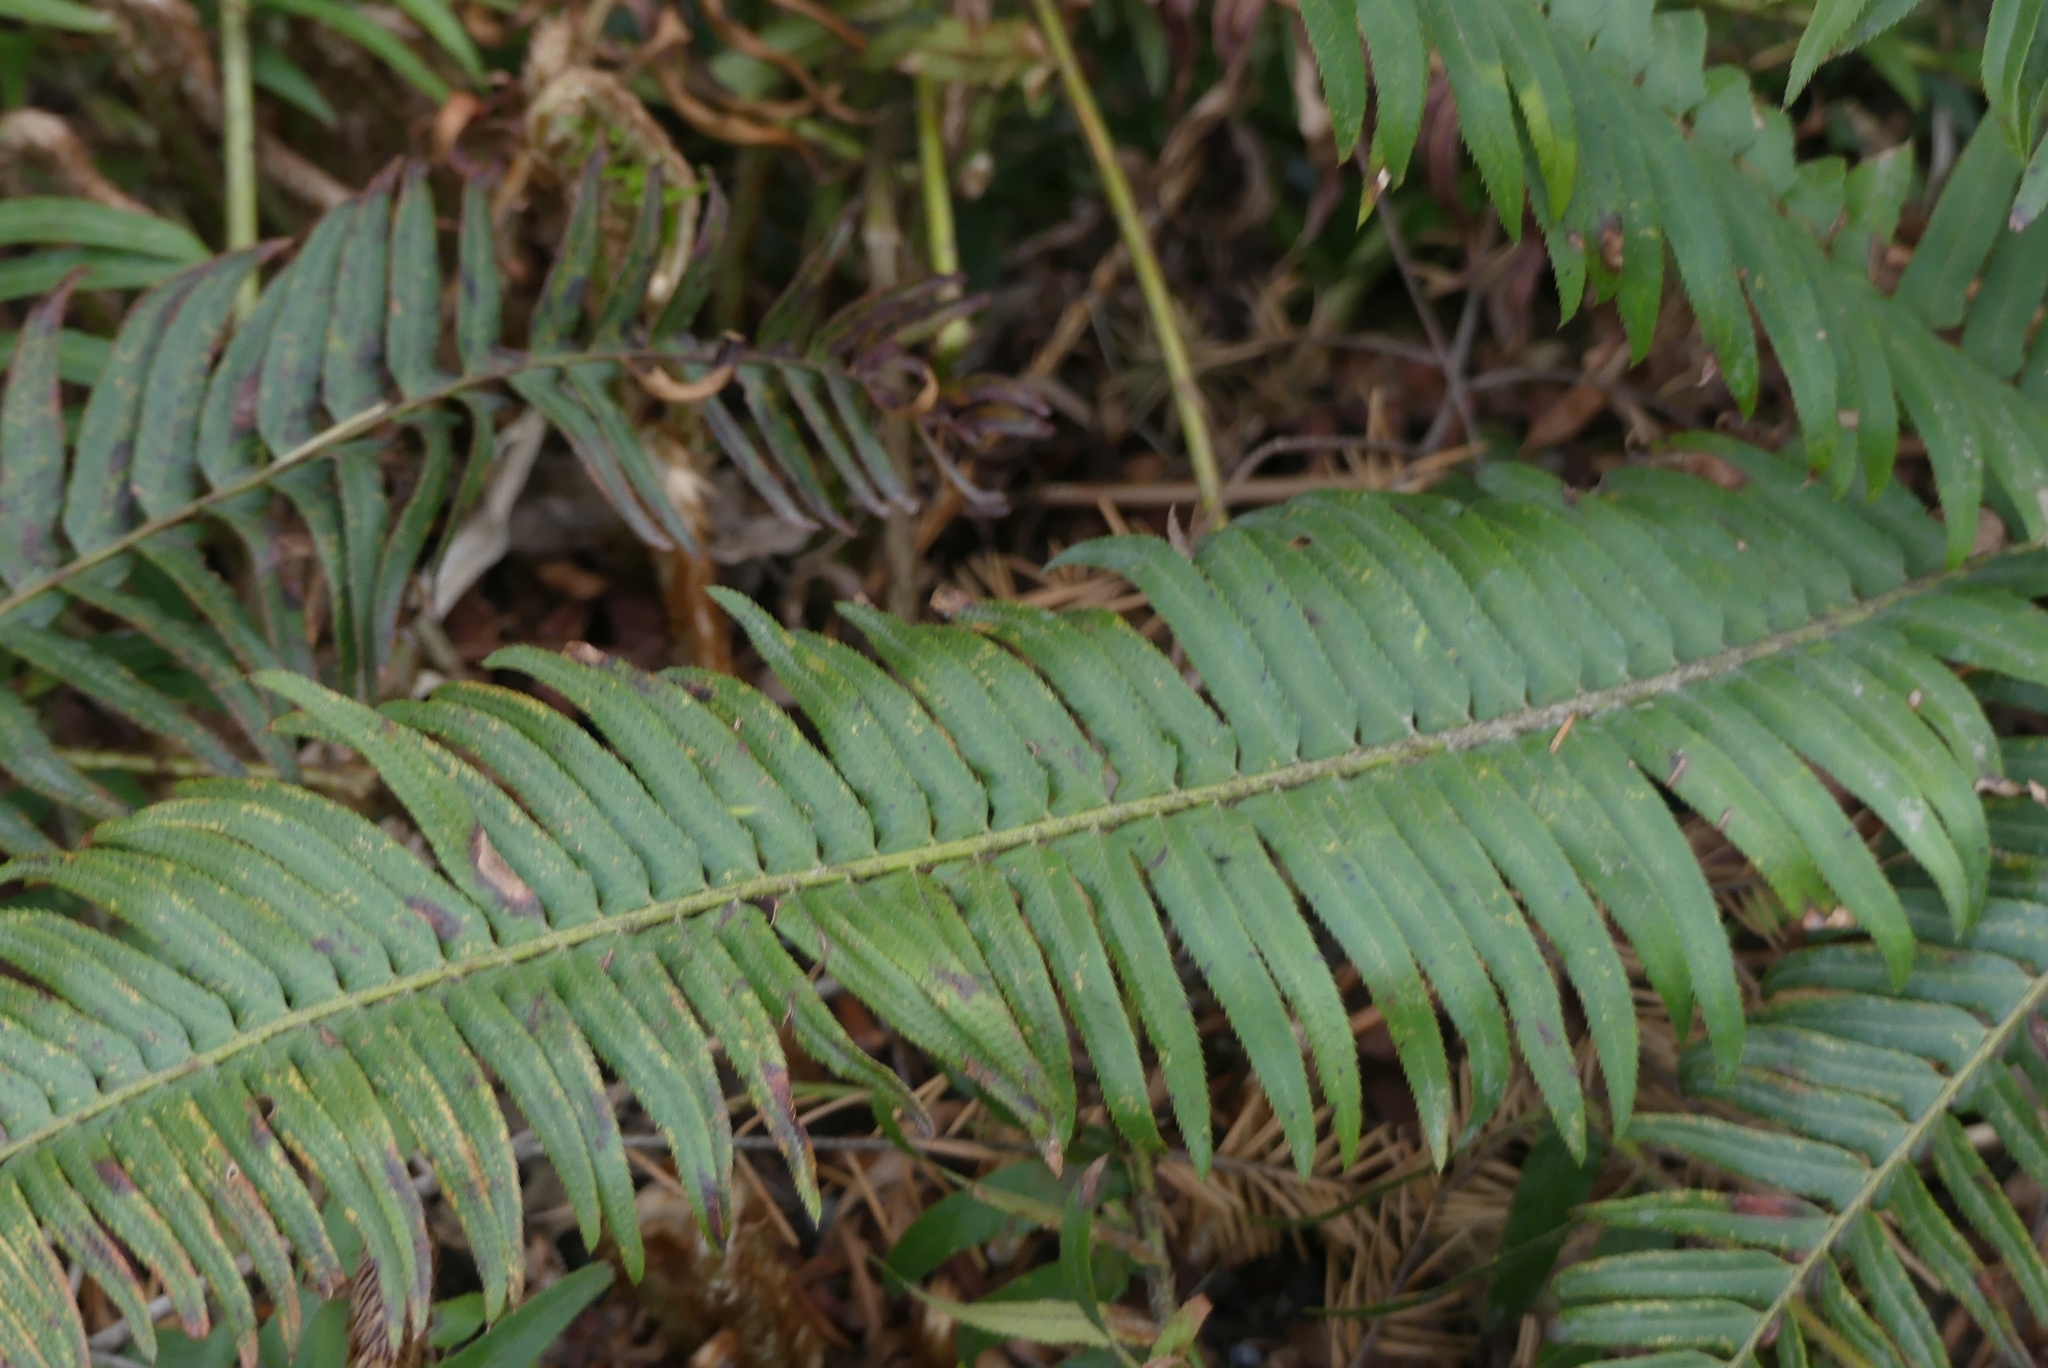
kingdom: Plantae
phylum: Tracheophyta
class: Polypodiopsida
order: Polypodiales
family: Dryopteridaceae
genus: Polystichum
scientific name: Polystichum munitum
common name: Western sword-fern
